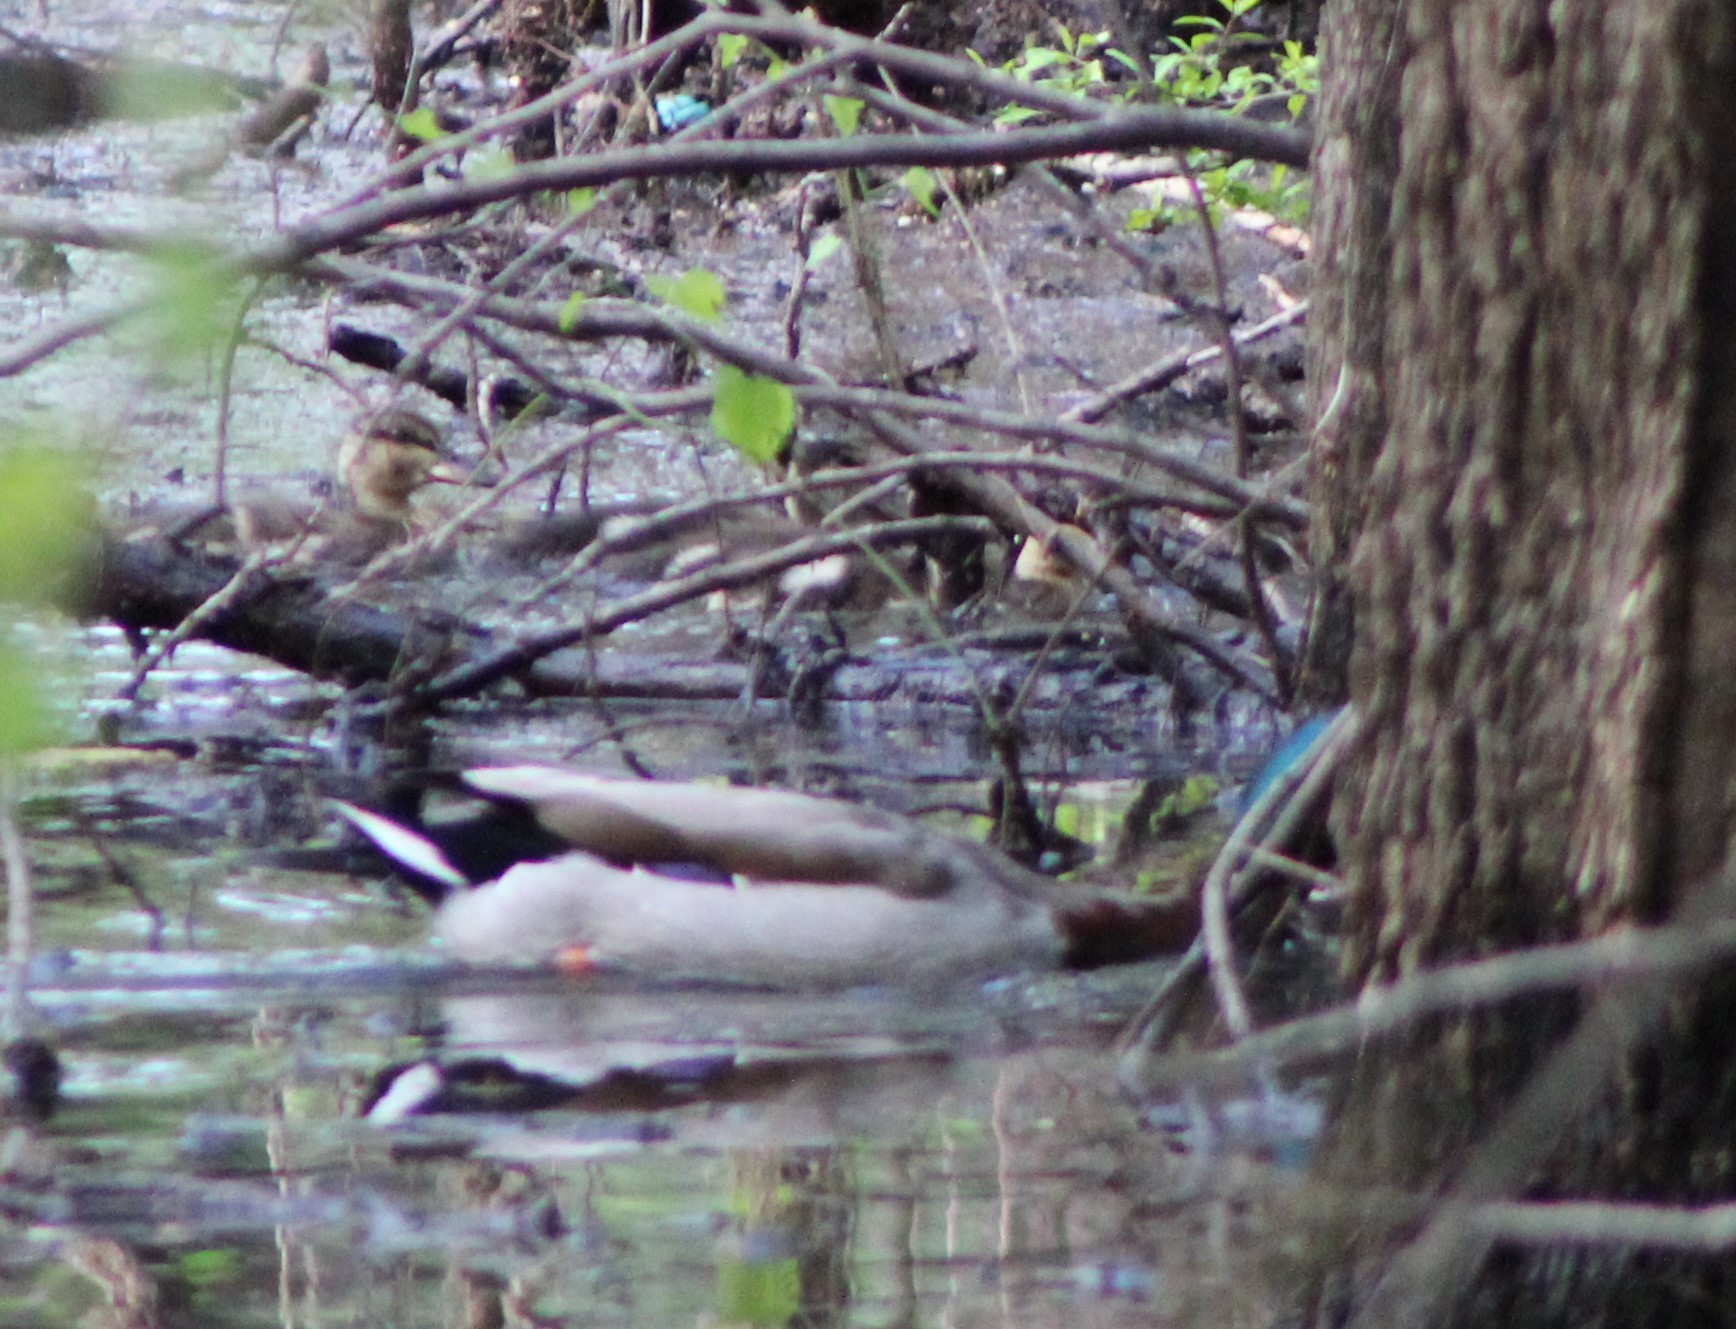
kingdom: Animalia
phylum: Chordata
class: Aves
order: Anseriformes
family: Anatidae
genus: Anas
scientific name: Anas platyrhynchos
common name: Mallard
